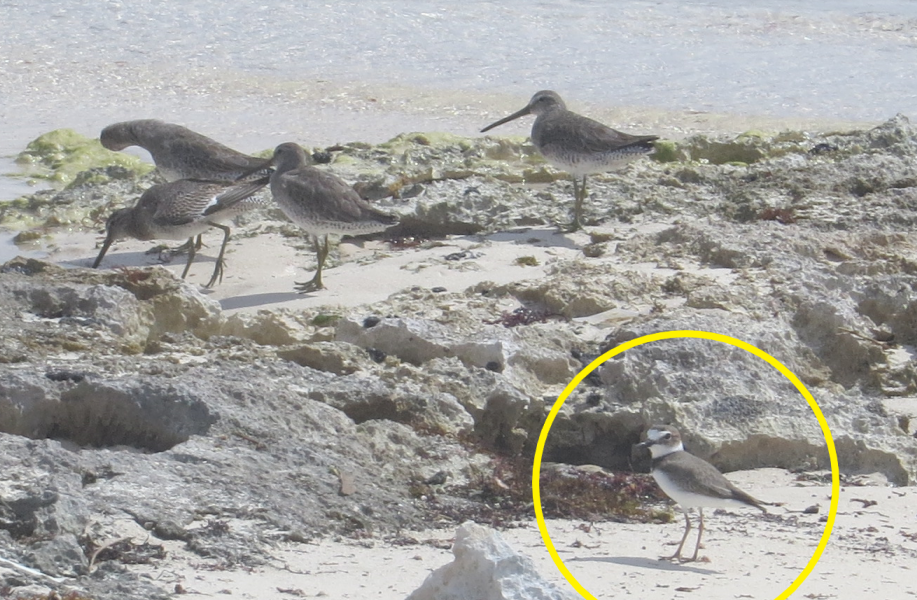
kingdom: Animalia
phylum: Chordata
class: Aves
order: Charadriiformes
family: Charadriidae
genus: Anarhynchus
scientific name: Anarhynchus
